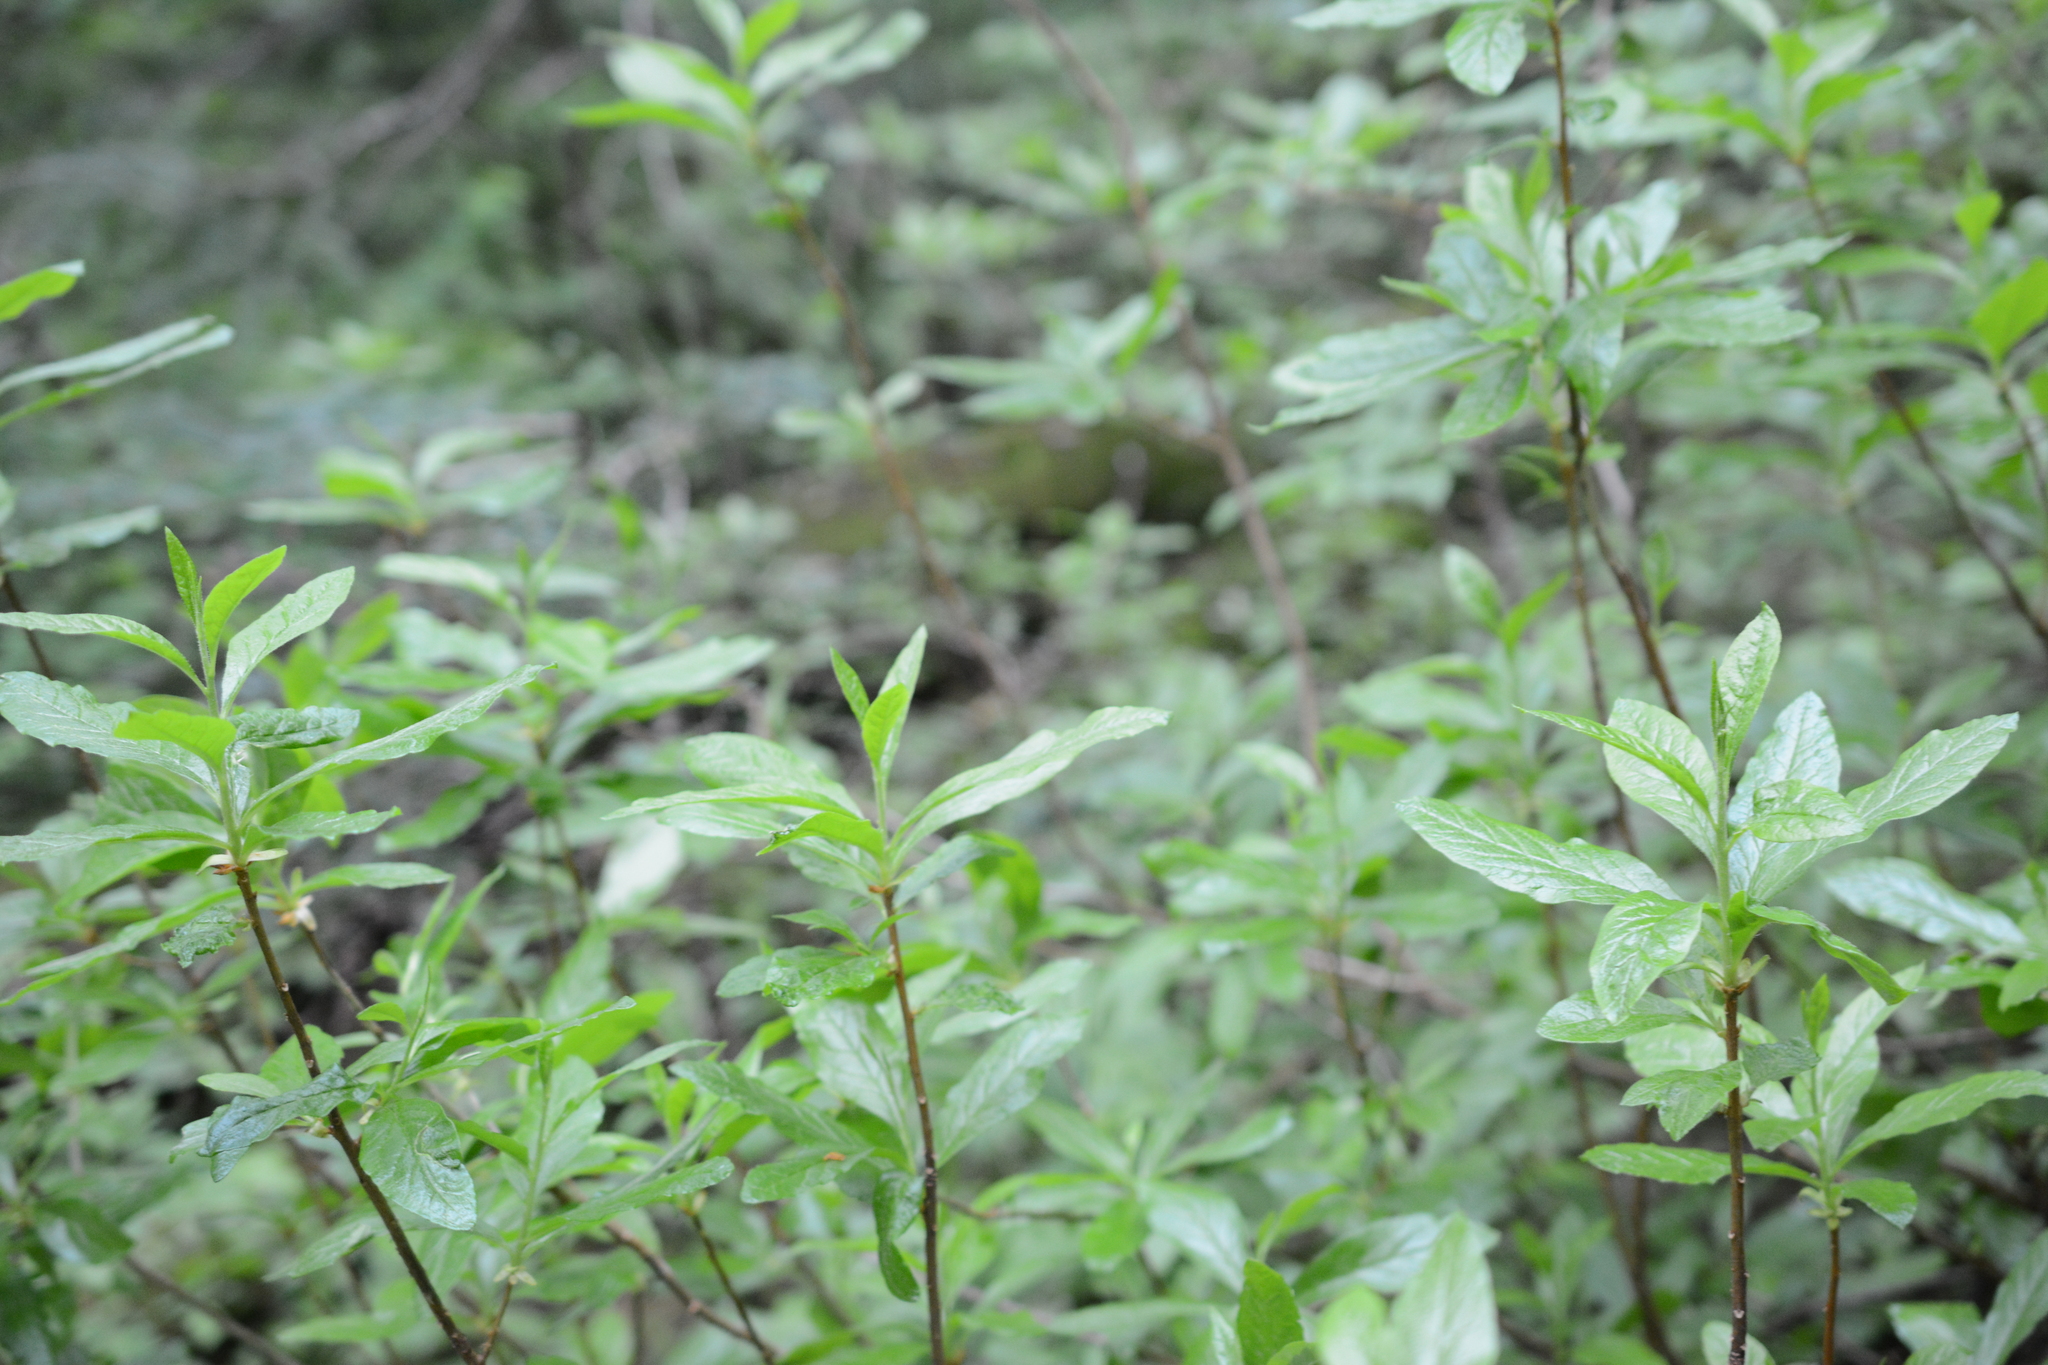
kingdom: Plantae
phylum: Tracheophyta
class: Magnoliopsida
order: Ericales
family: Ericaceae
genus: Rhododendron
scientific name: Rhododendron albiflorum
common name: White rhododendron
